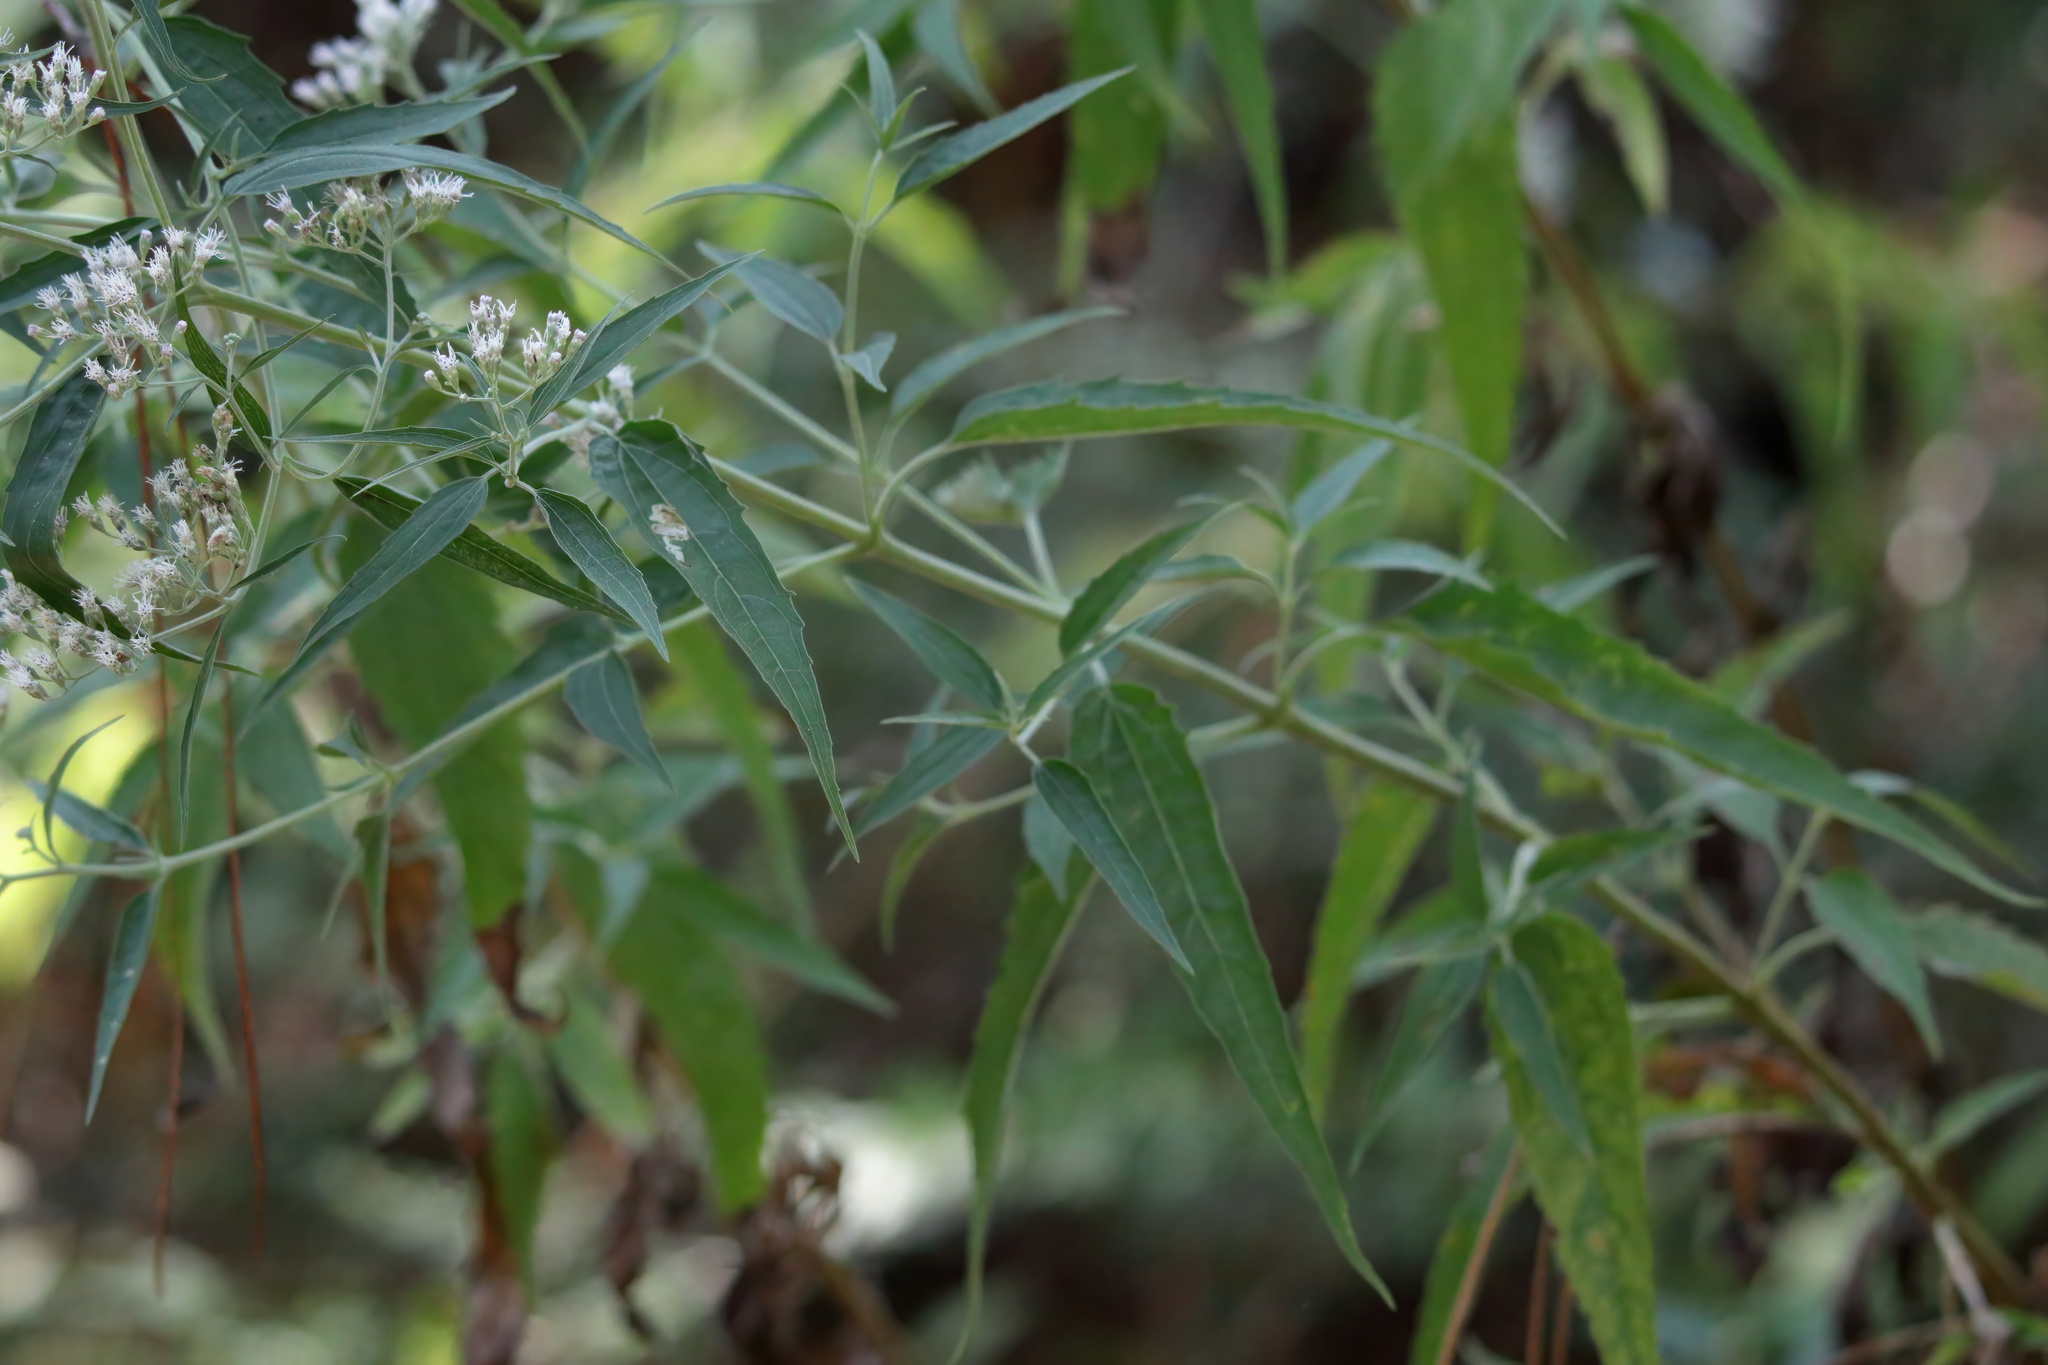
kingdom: Plantae
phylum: Tracheophyta
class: Magnoliopsida
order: Asterales
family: Asteraceae
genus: Eupatorium
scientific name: Eupatorium serotinum
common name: Late boneset
